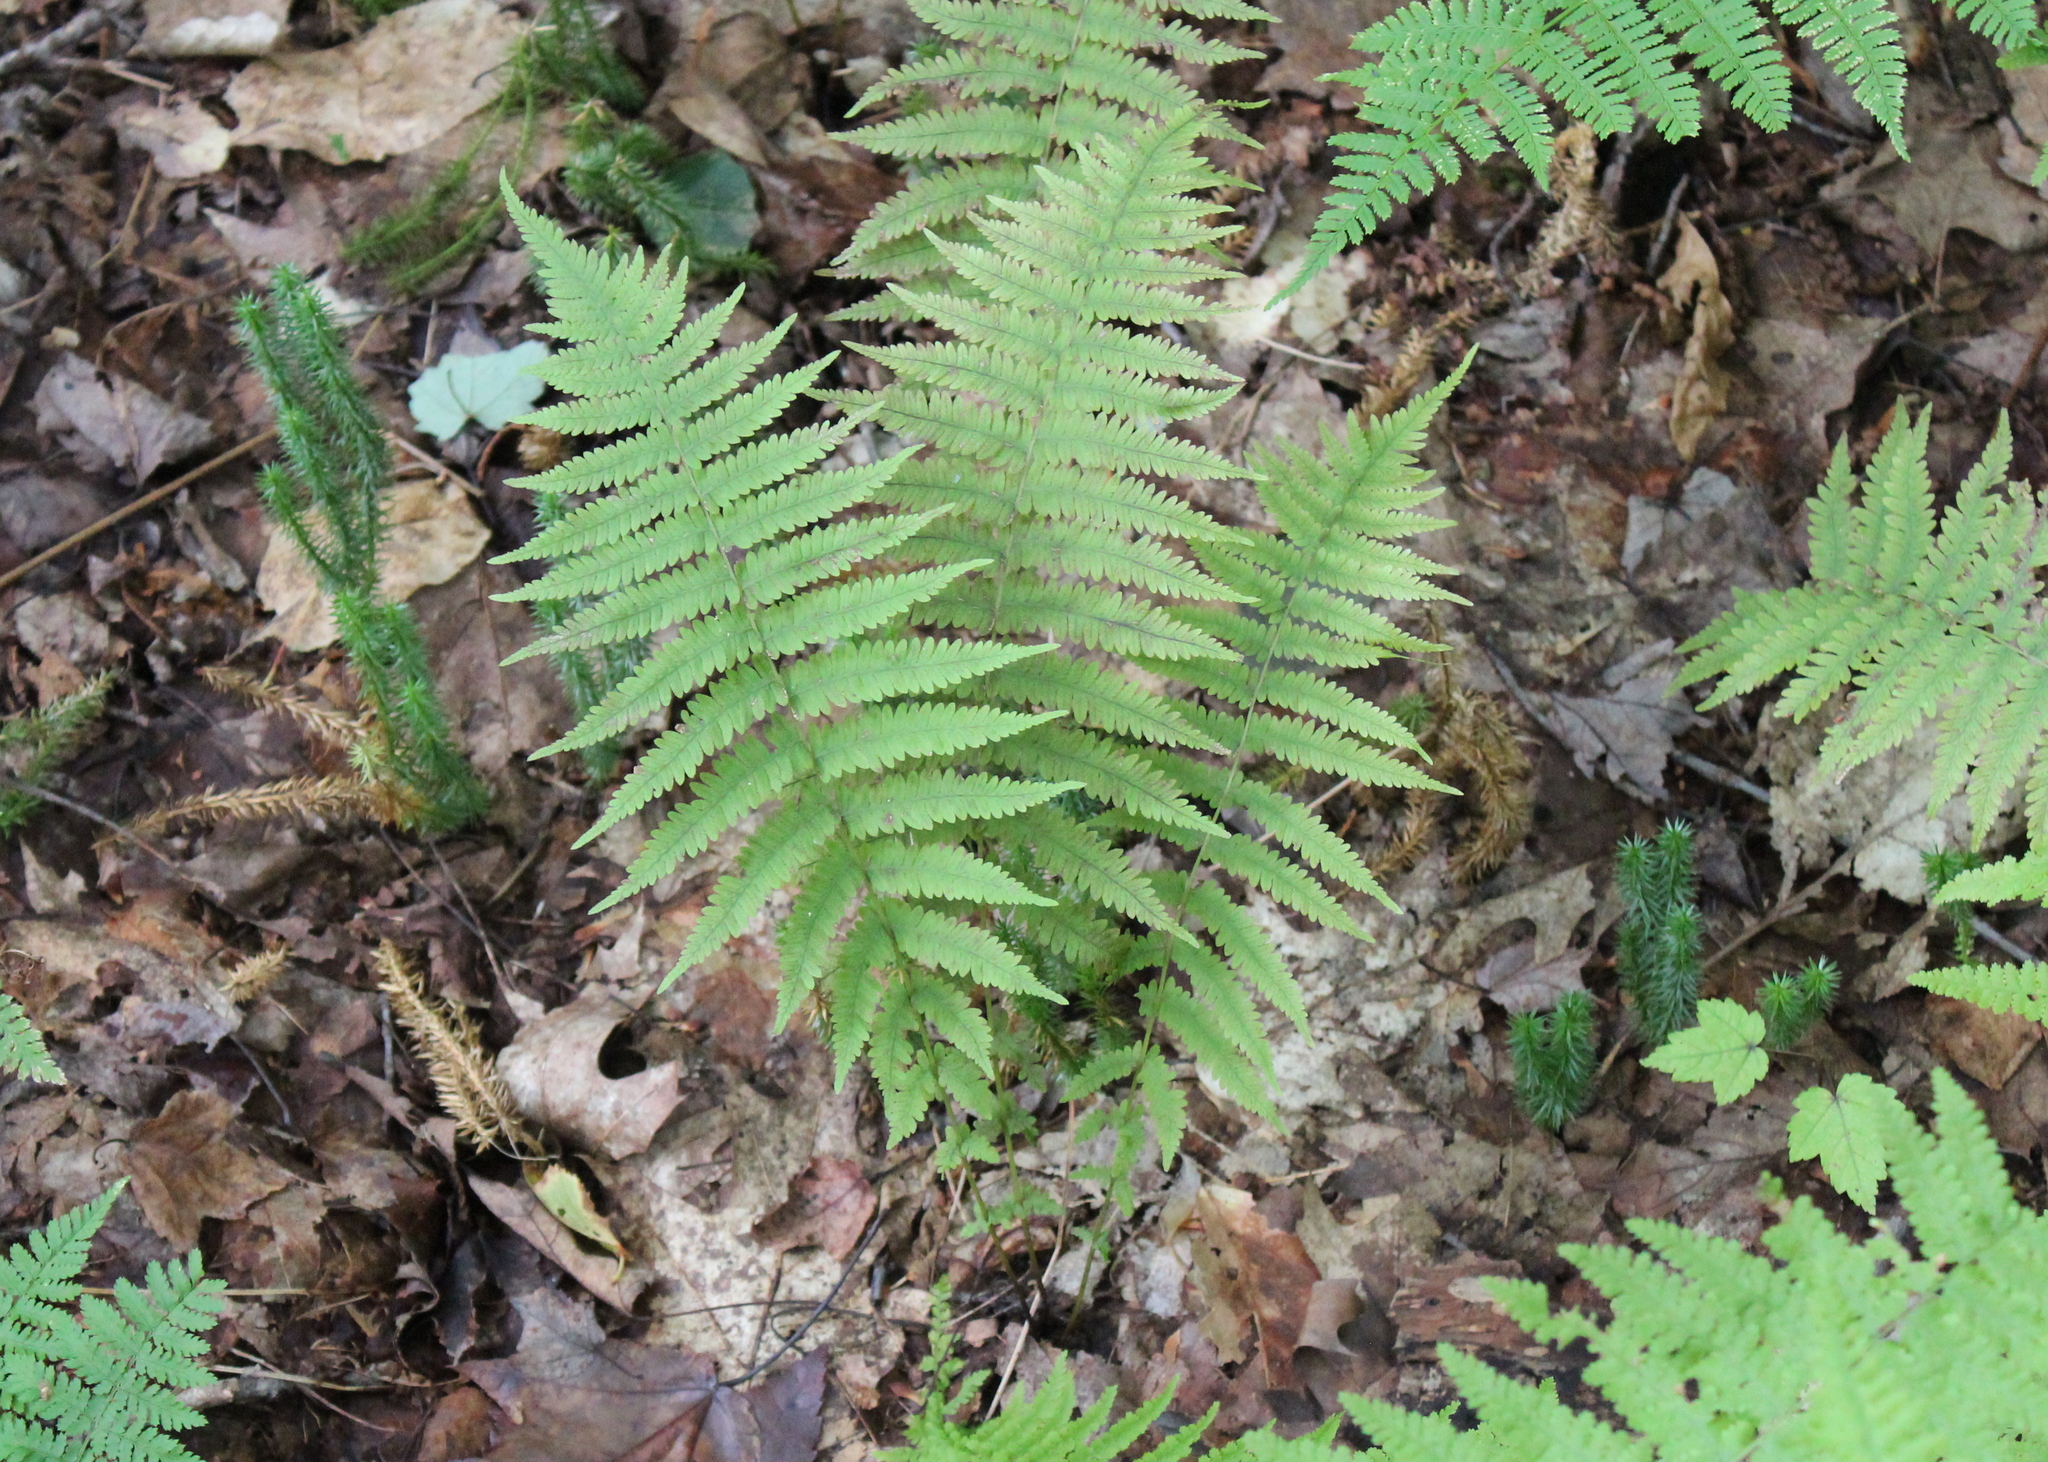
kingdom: Plantae
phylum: Tracheophyta
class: Polypodiopsida
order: Polypodiales
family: Thelypteridaceae
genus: Amauropelta
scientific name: Amauropelta noveboracensis
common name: New york fern
